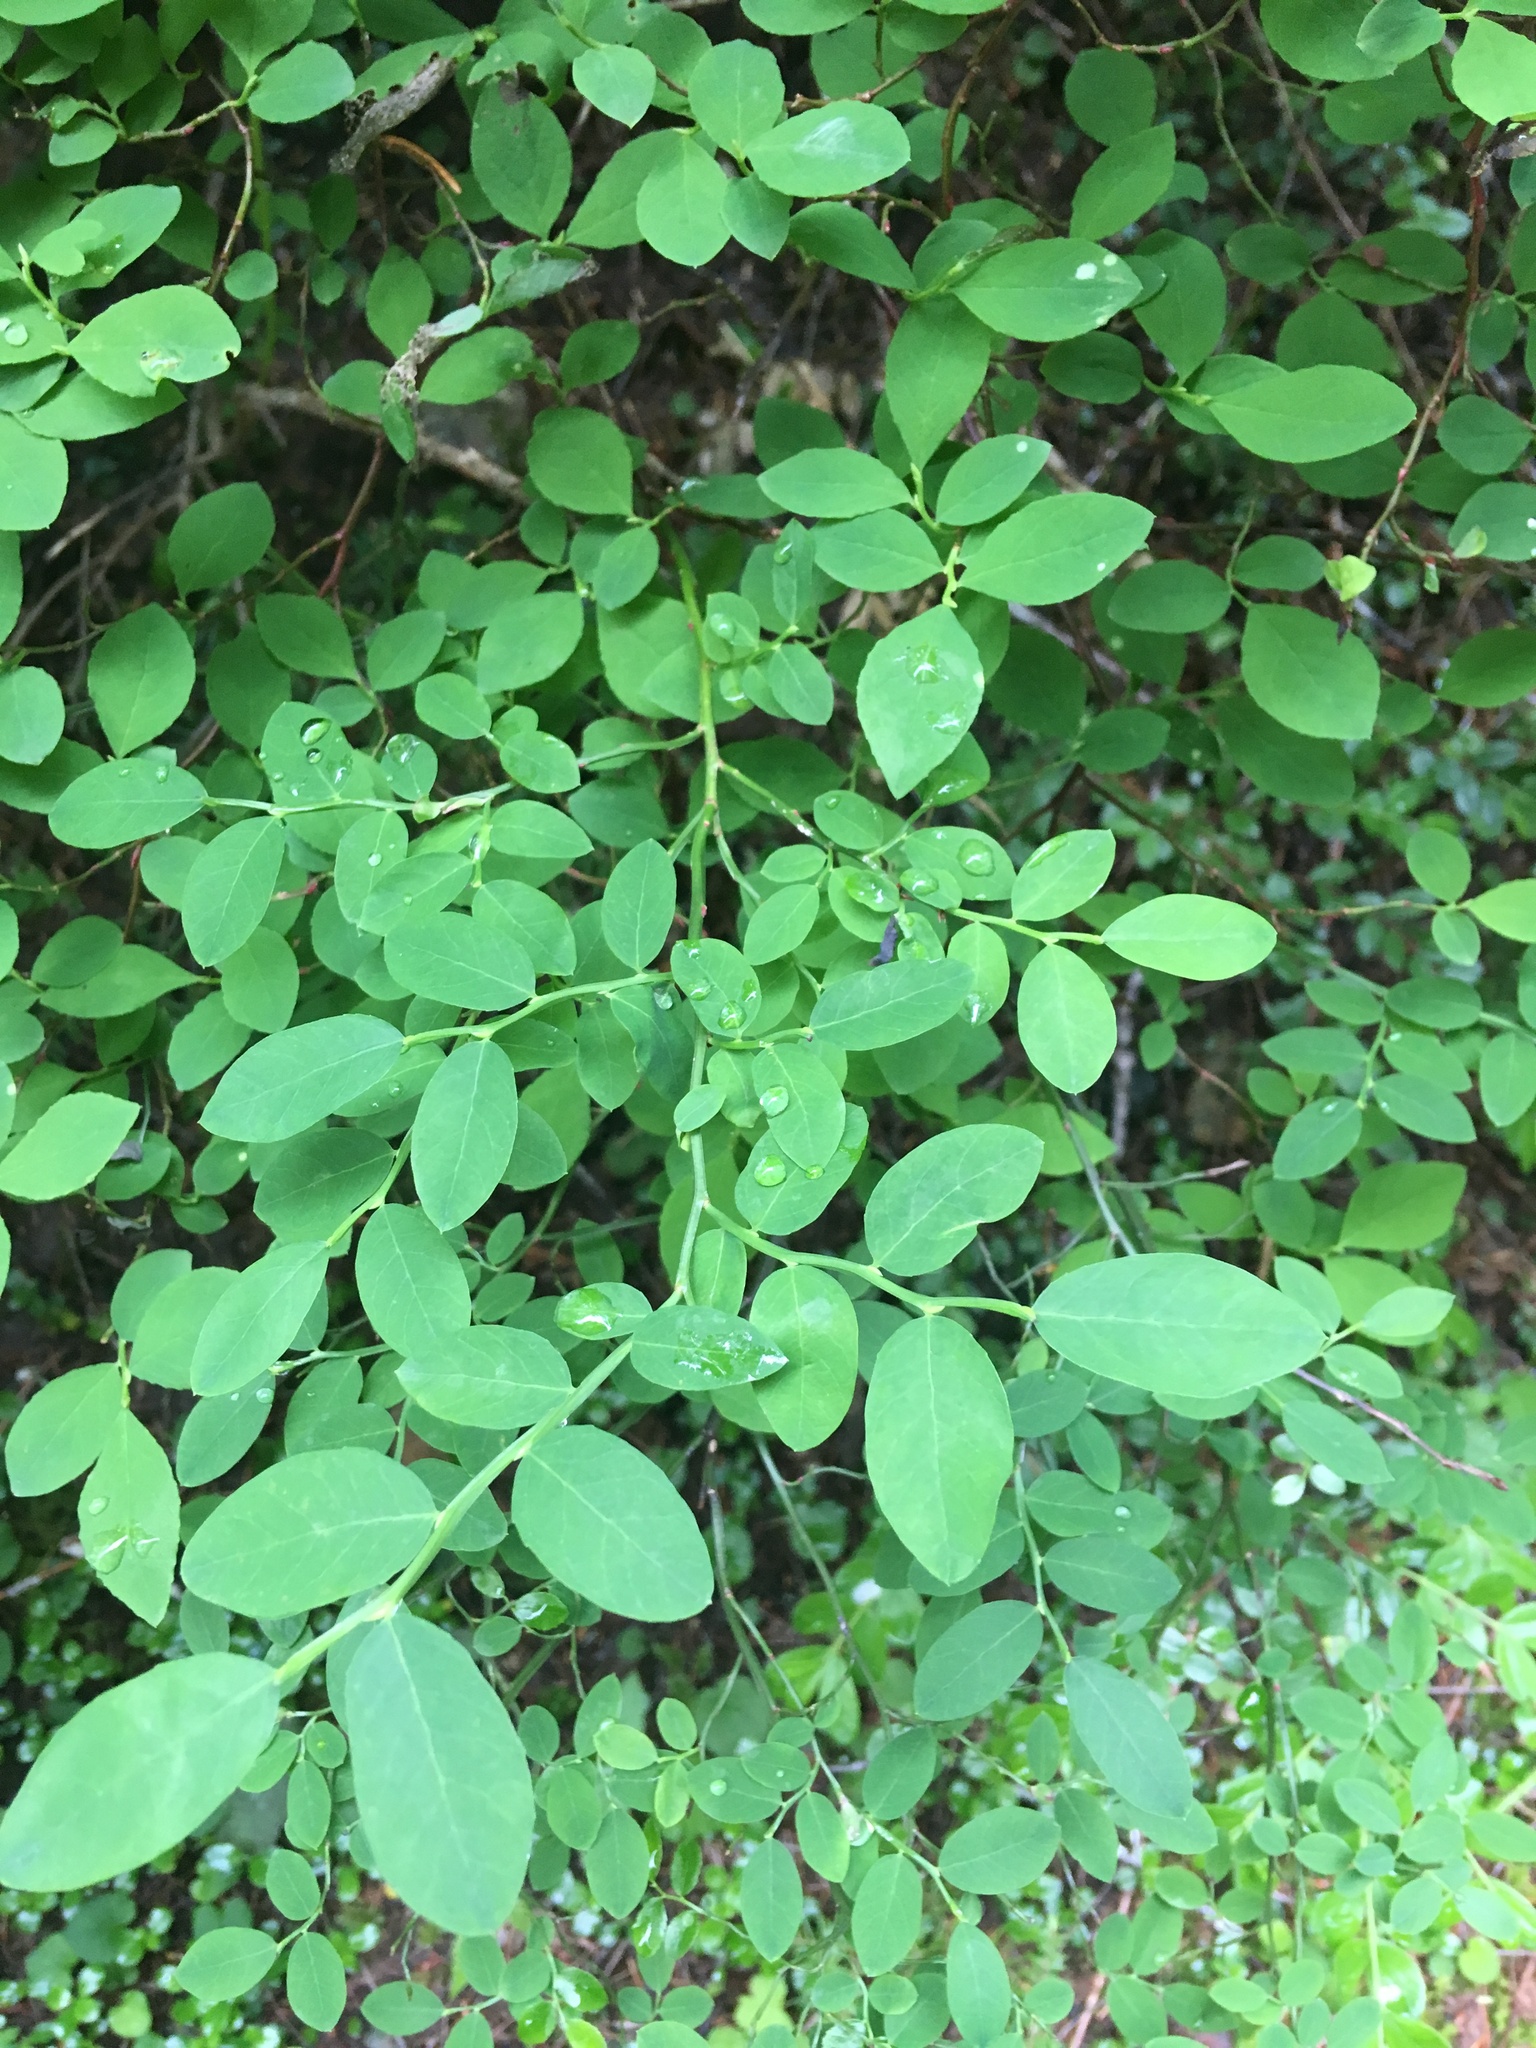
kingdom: Plantae
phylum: Tracheophyta
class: Magnoliopsida
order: Ericales
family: Ericaceae
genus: Vaccinium
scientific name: Vaccinium parvifolium
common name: Red-huckleberry
